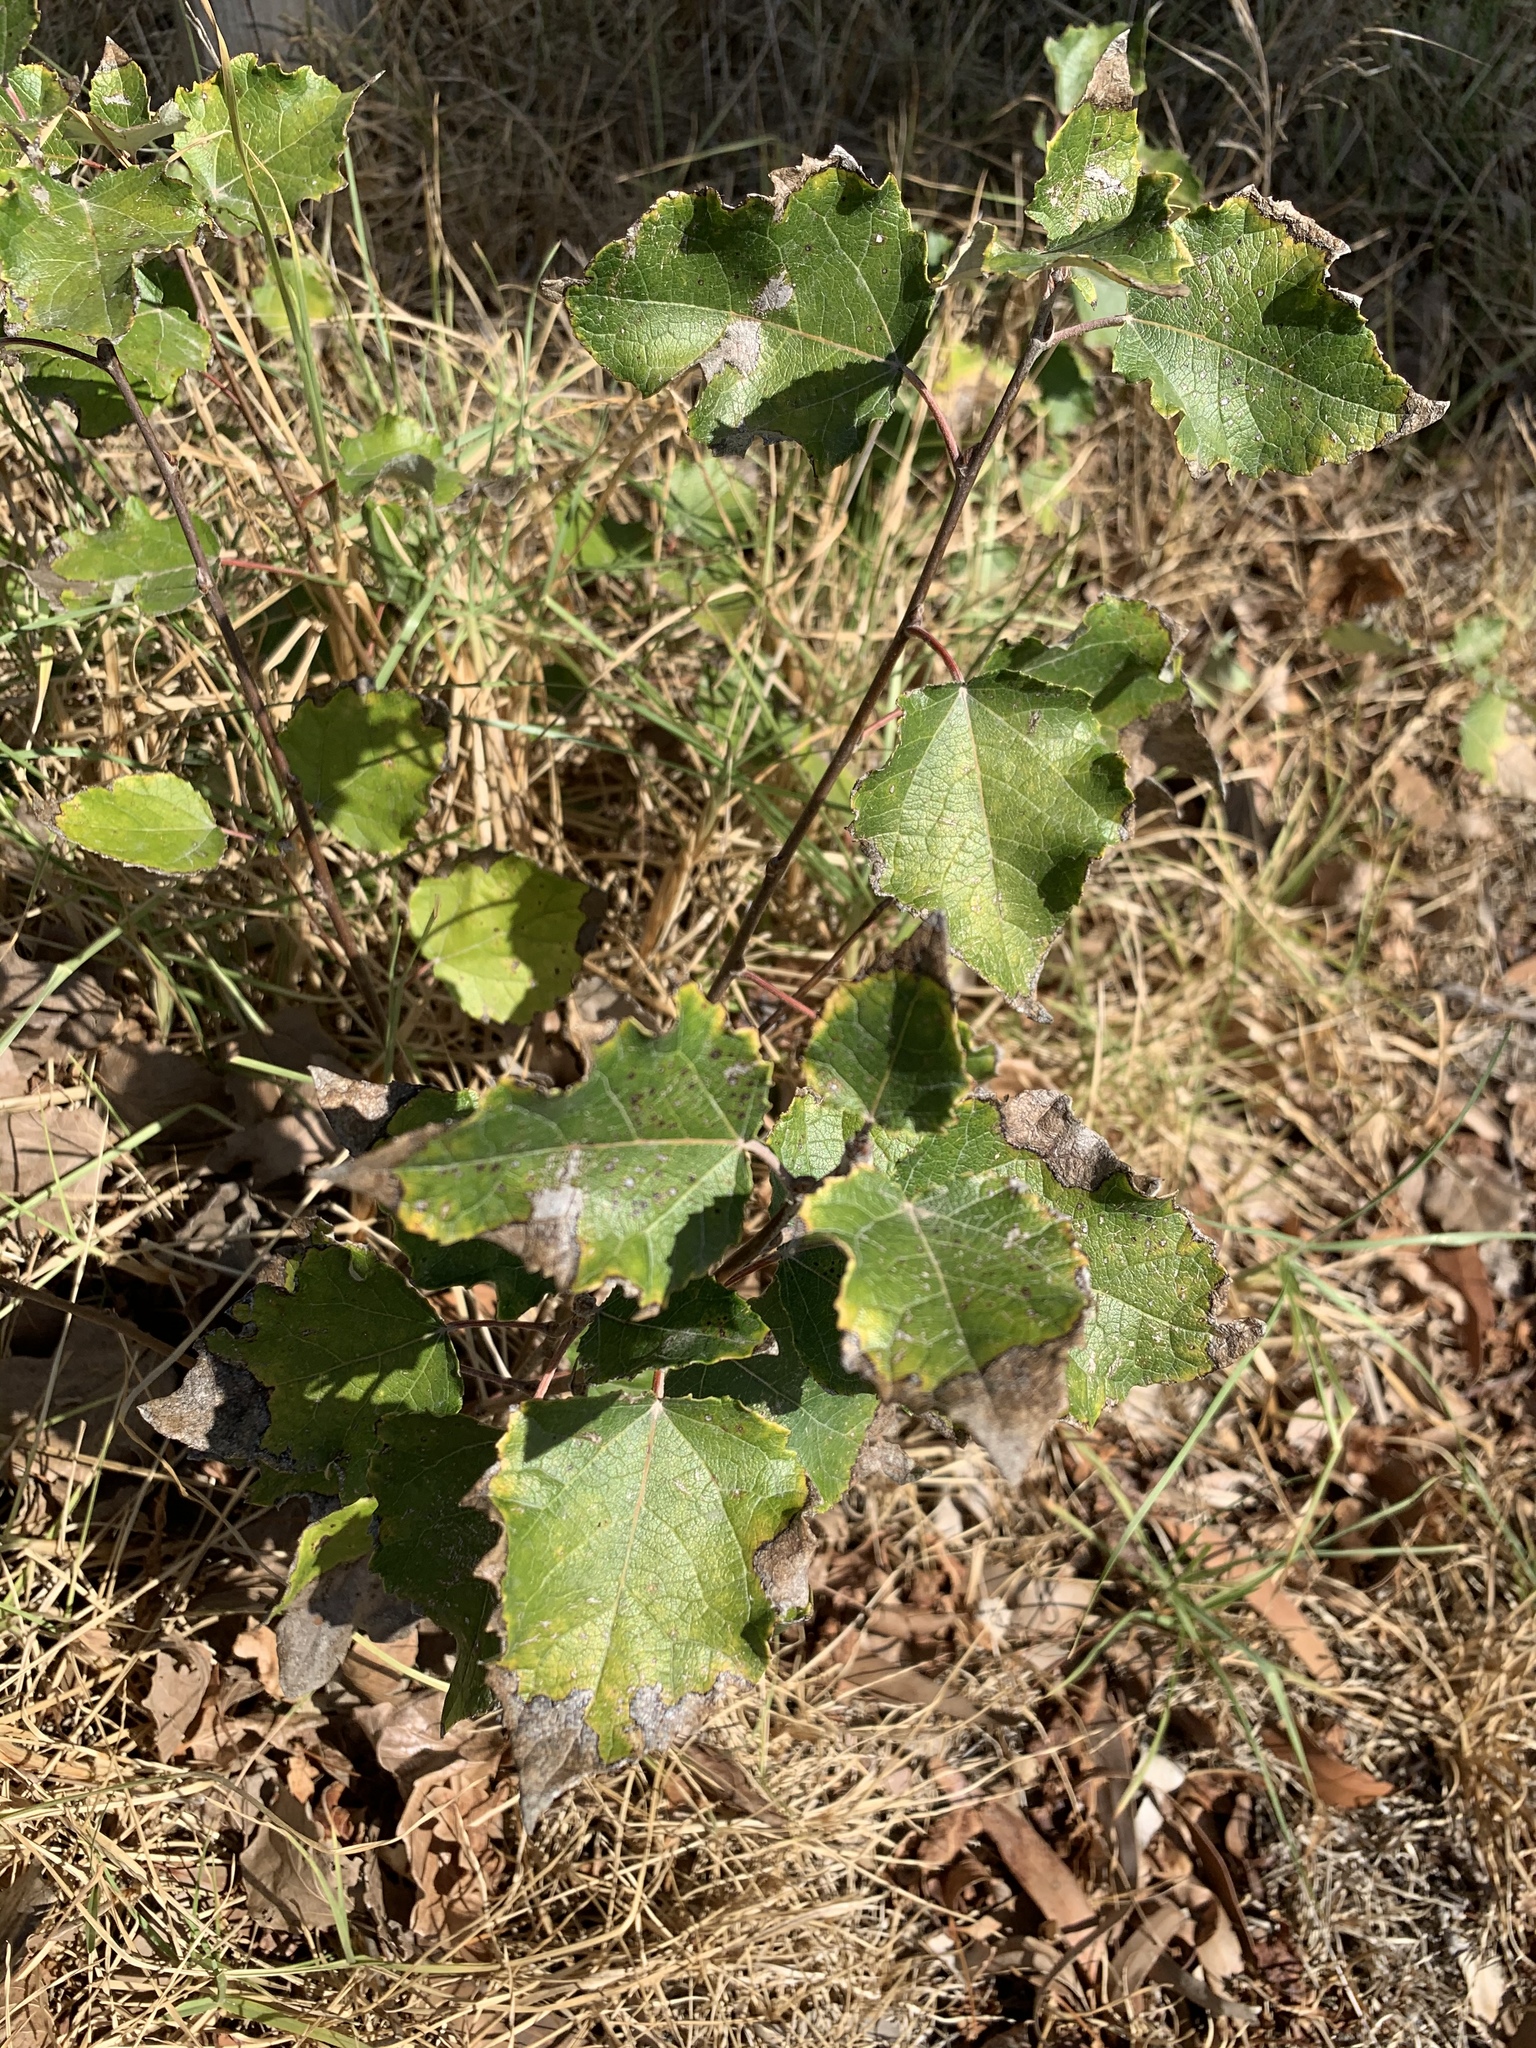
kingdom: Plantae
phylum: Tracheophyta
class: Magnoliopsida
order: Malpighiales
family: Salicaceae
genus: Populus
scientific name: Populus canescens
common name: Gray poplar
